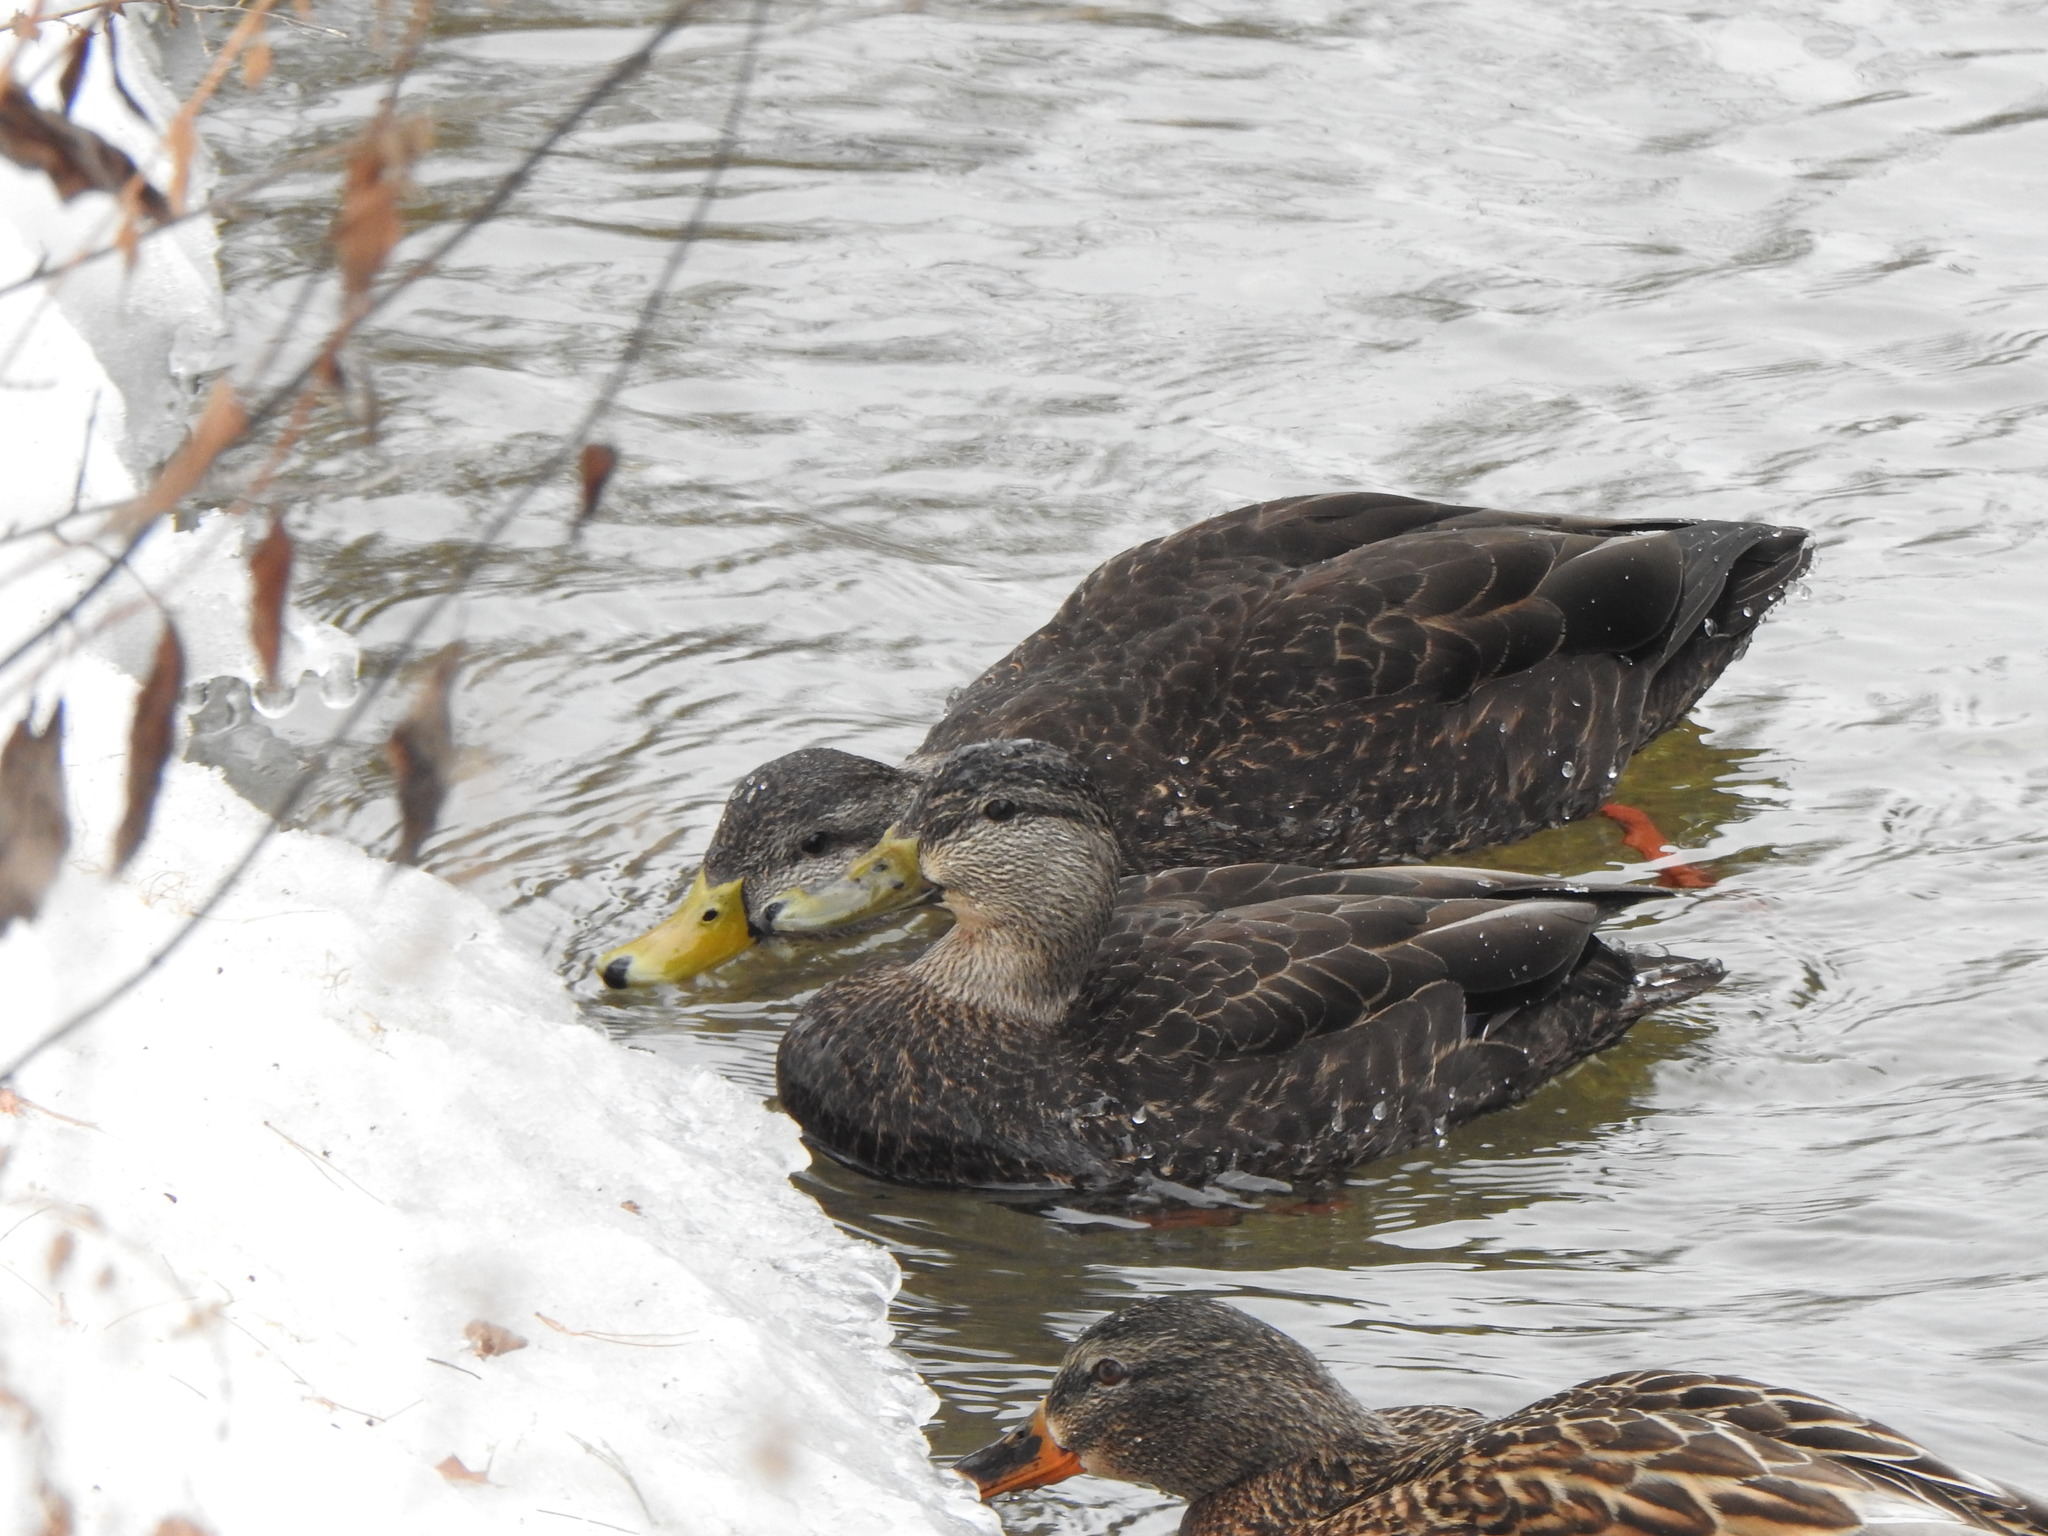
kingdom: Animalia
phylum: Chordata
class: Aves
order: Anseriformes
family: Anatidae
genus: Anas
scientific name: Anas rubripes
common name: American black duck
